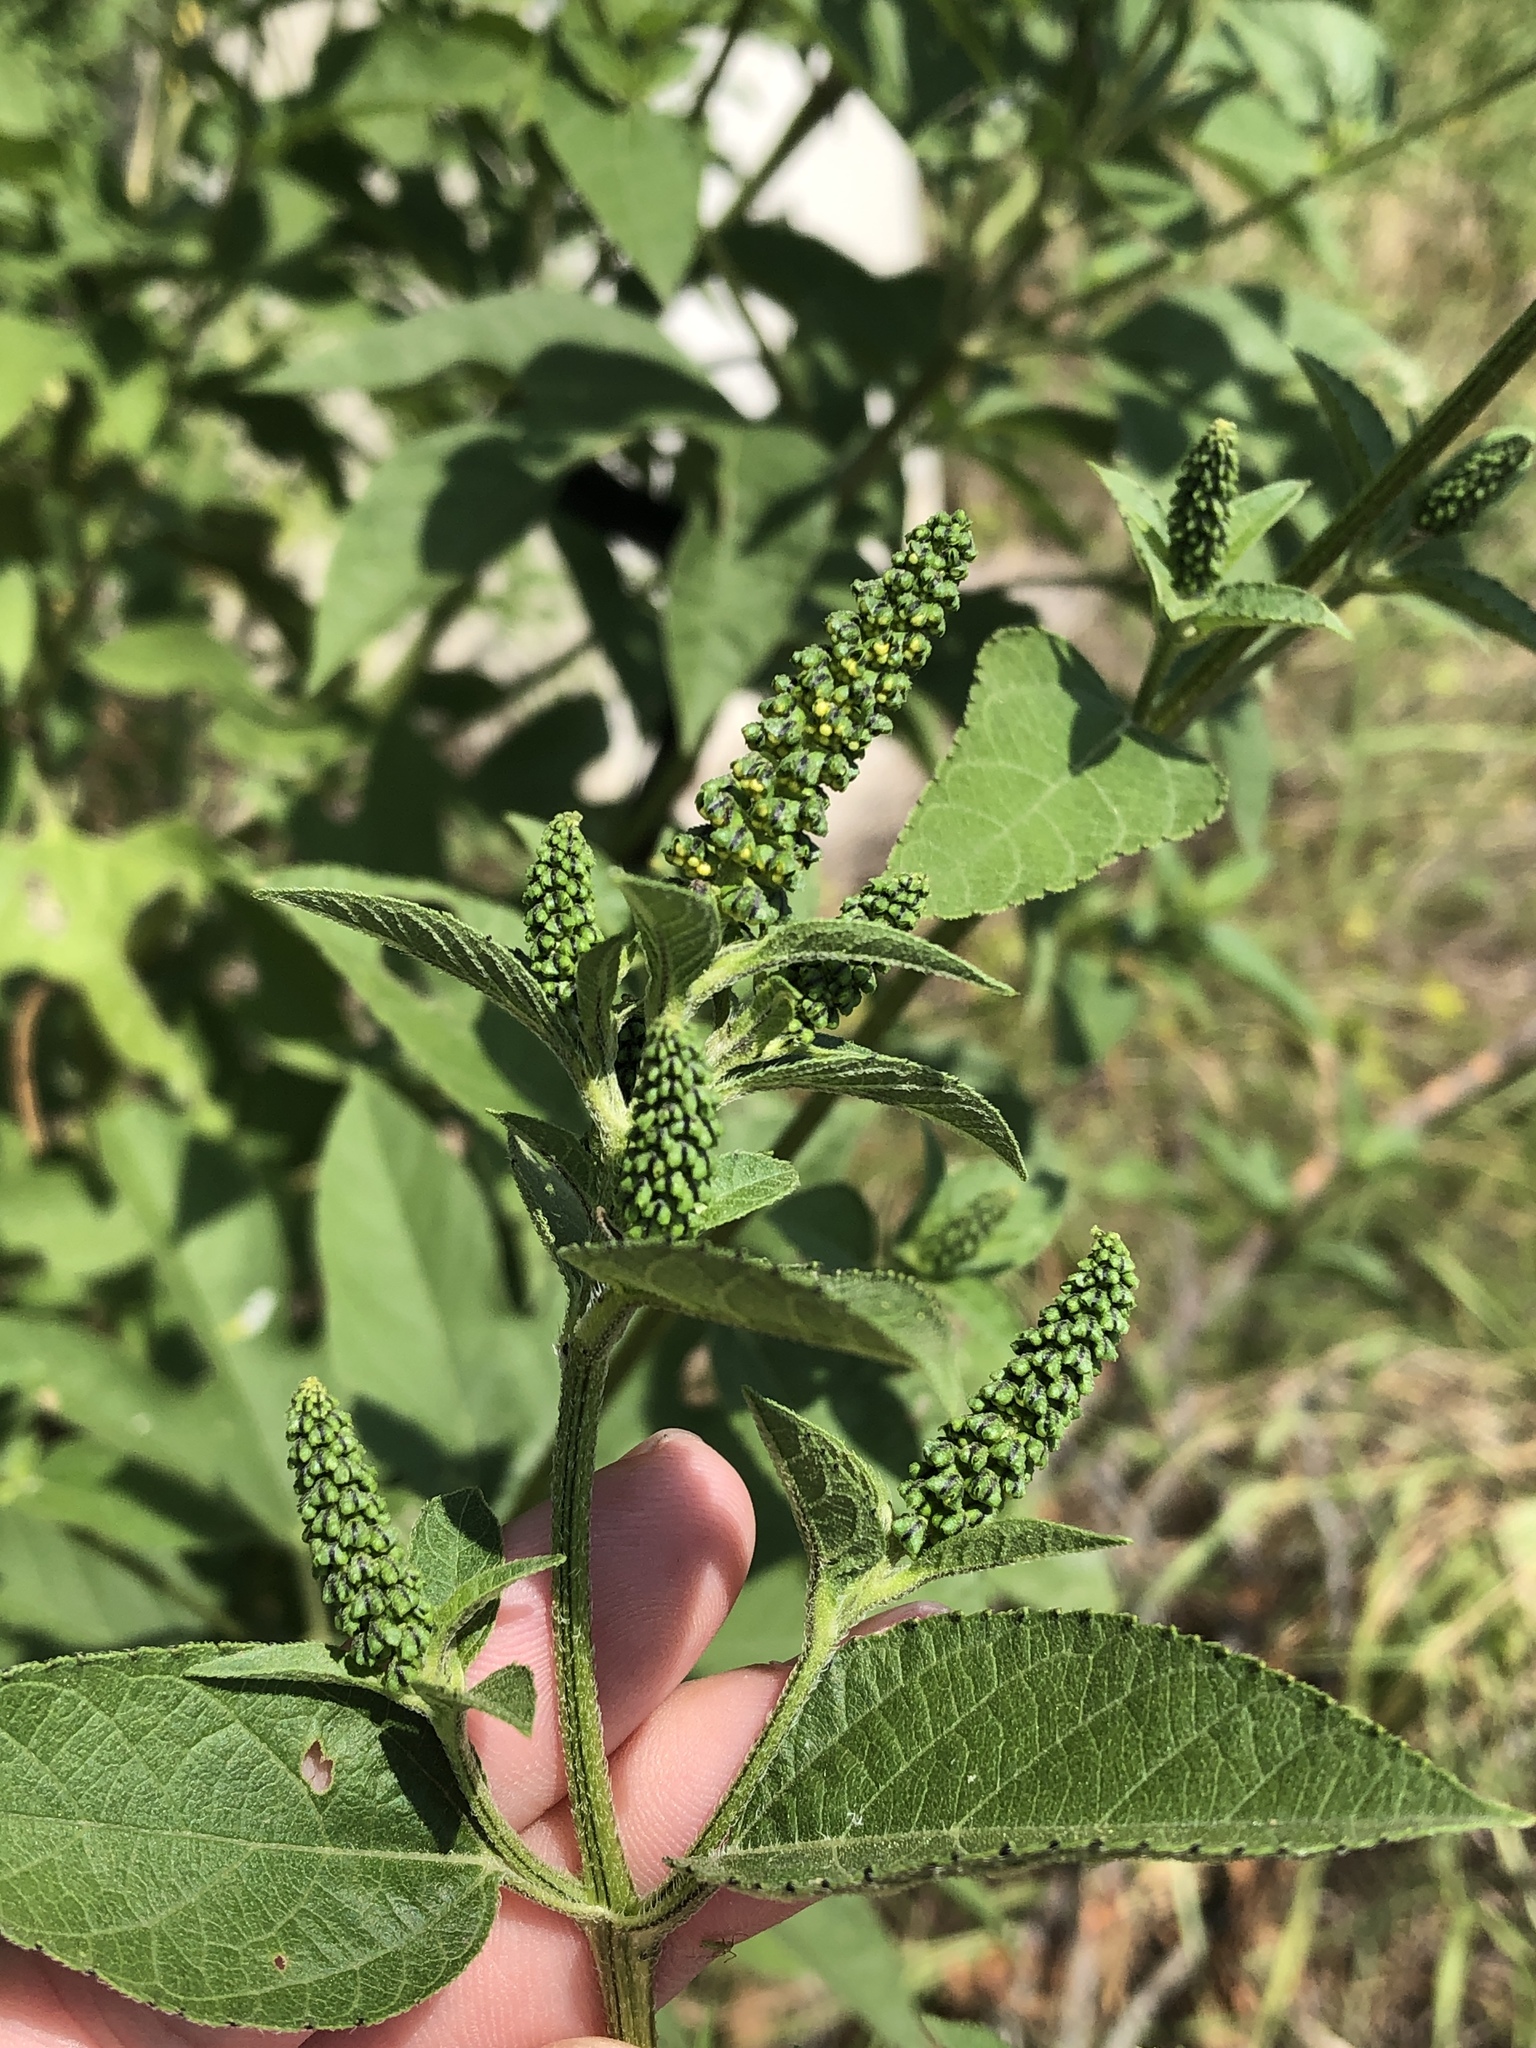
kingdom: Plantae
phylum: Tracheophyta
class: Magnoliopsida
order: Asterales
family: Asteraceae
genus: Ambrosia
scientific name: Ambrosia trifida
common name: Giant ragweed
